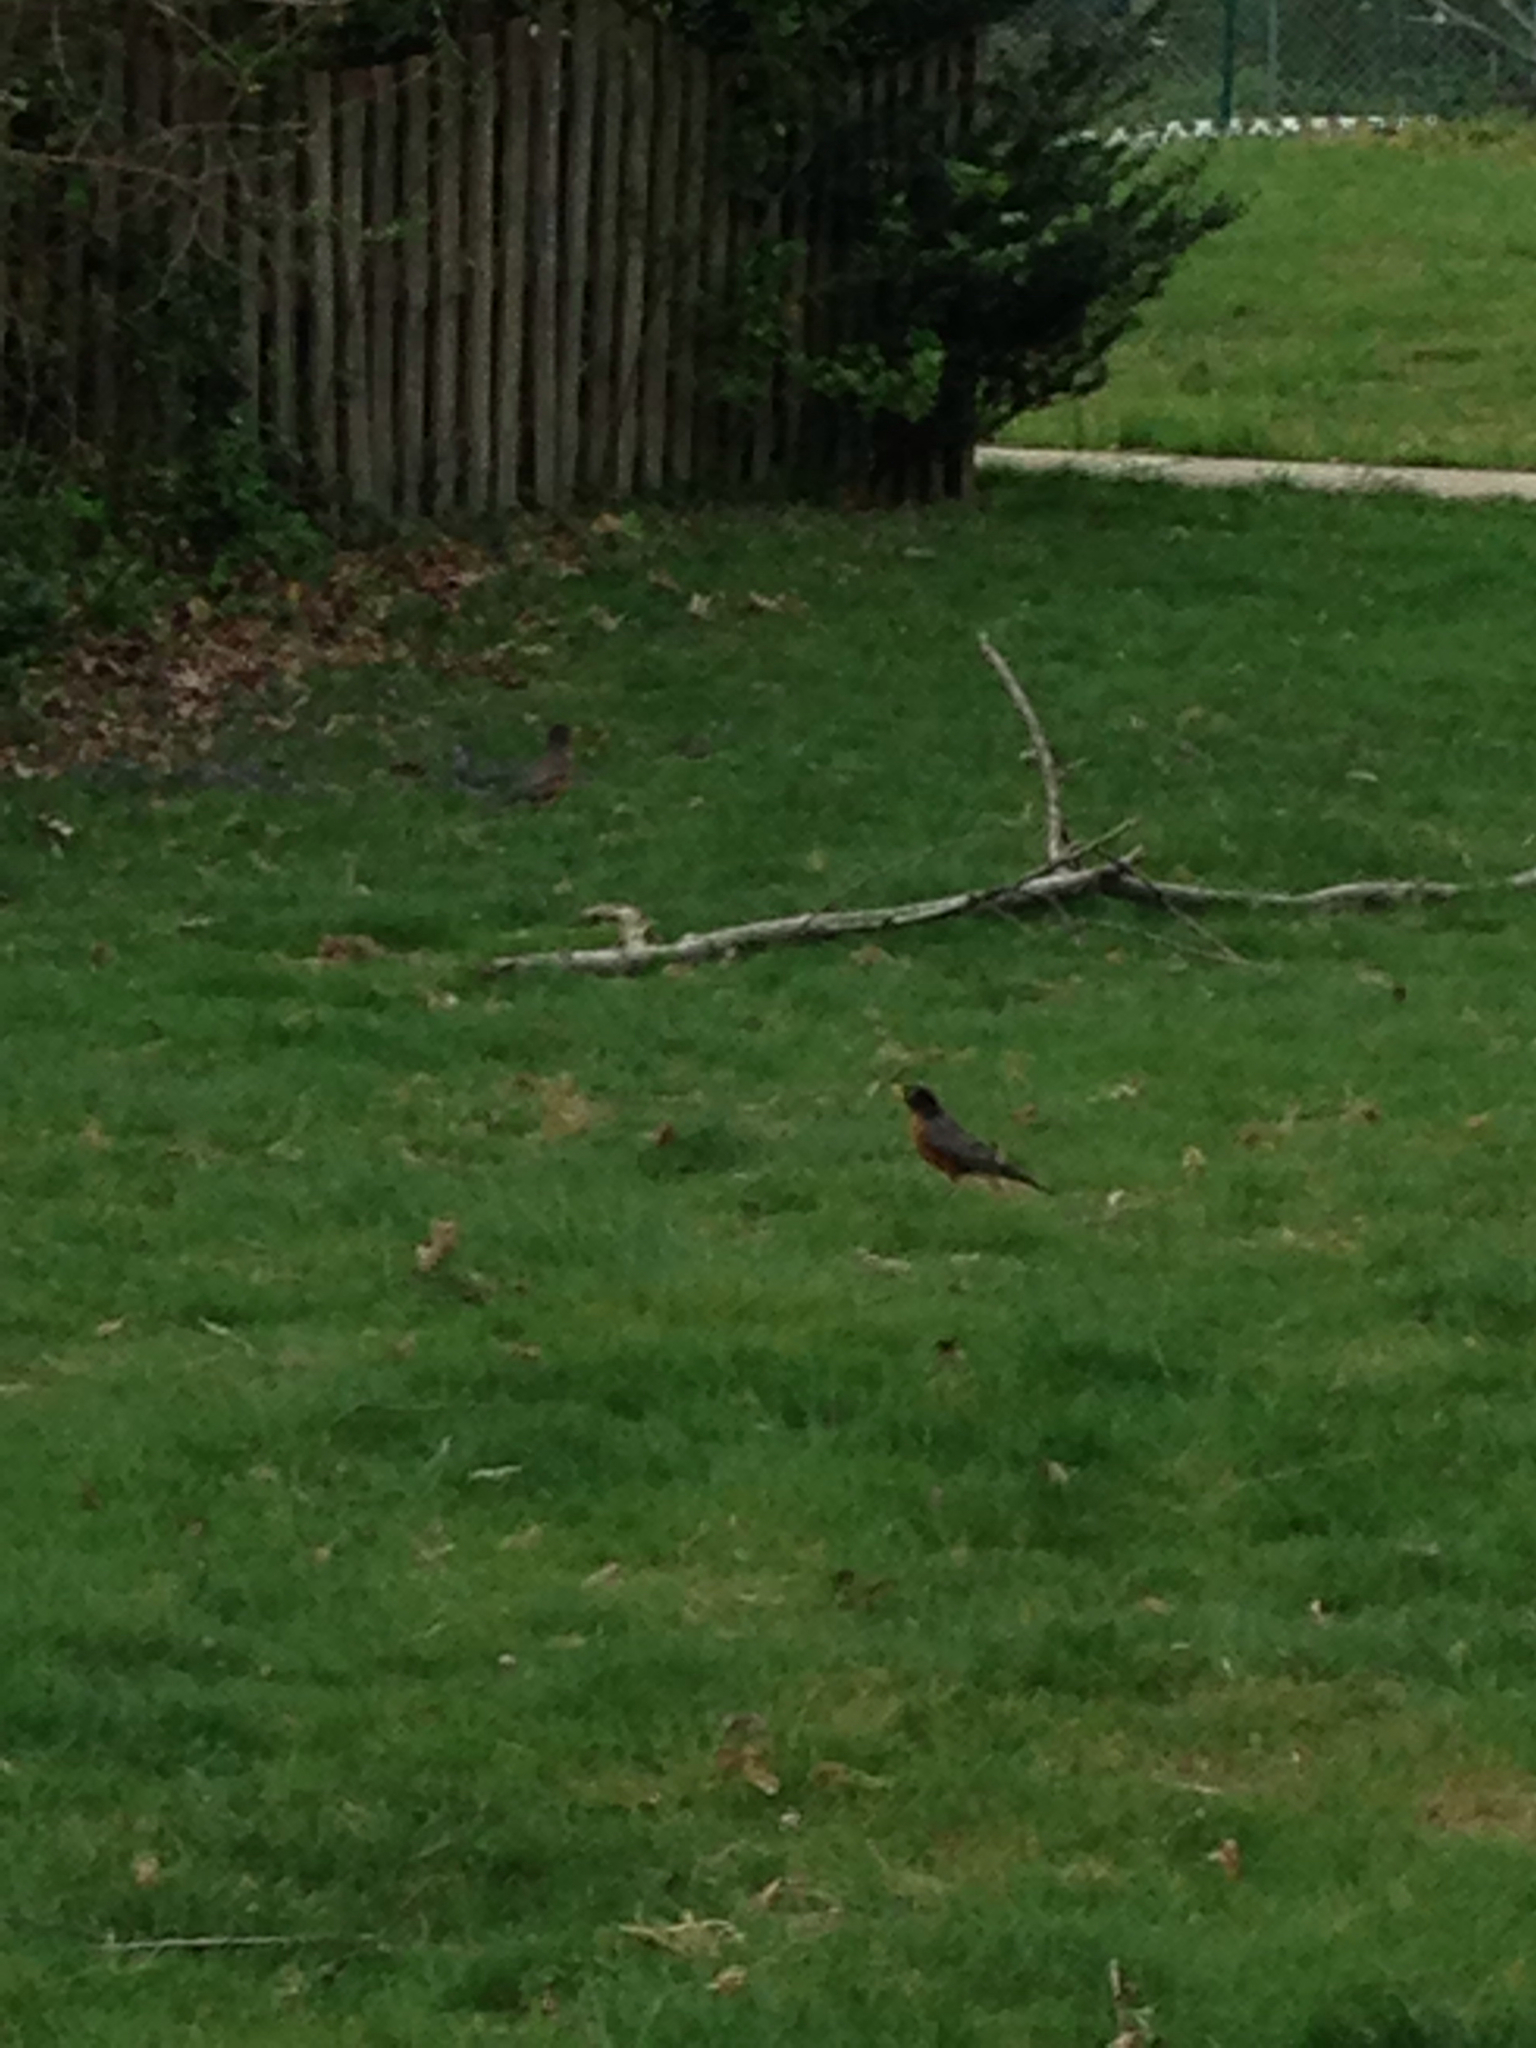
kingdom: Animalia
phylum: Chordata
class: Aves
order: Passeriformes
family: Turdidae
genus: Turdus
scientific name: Turdus migratorius
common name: American robin
